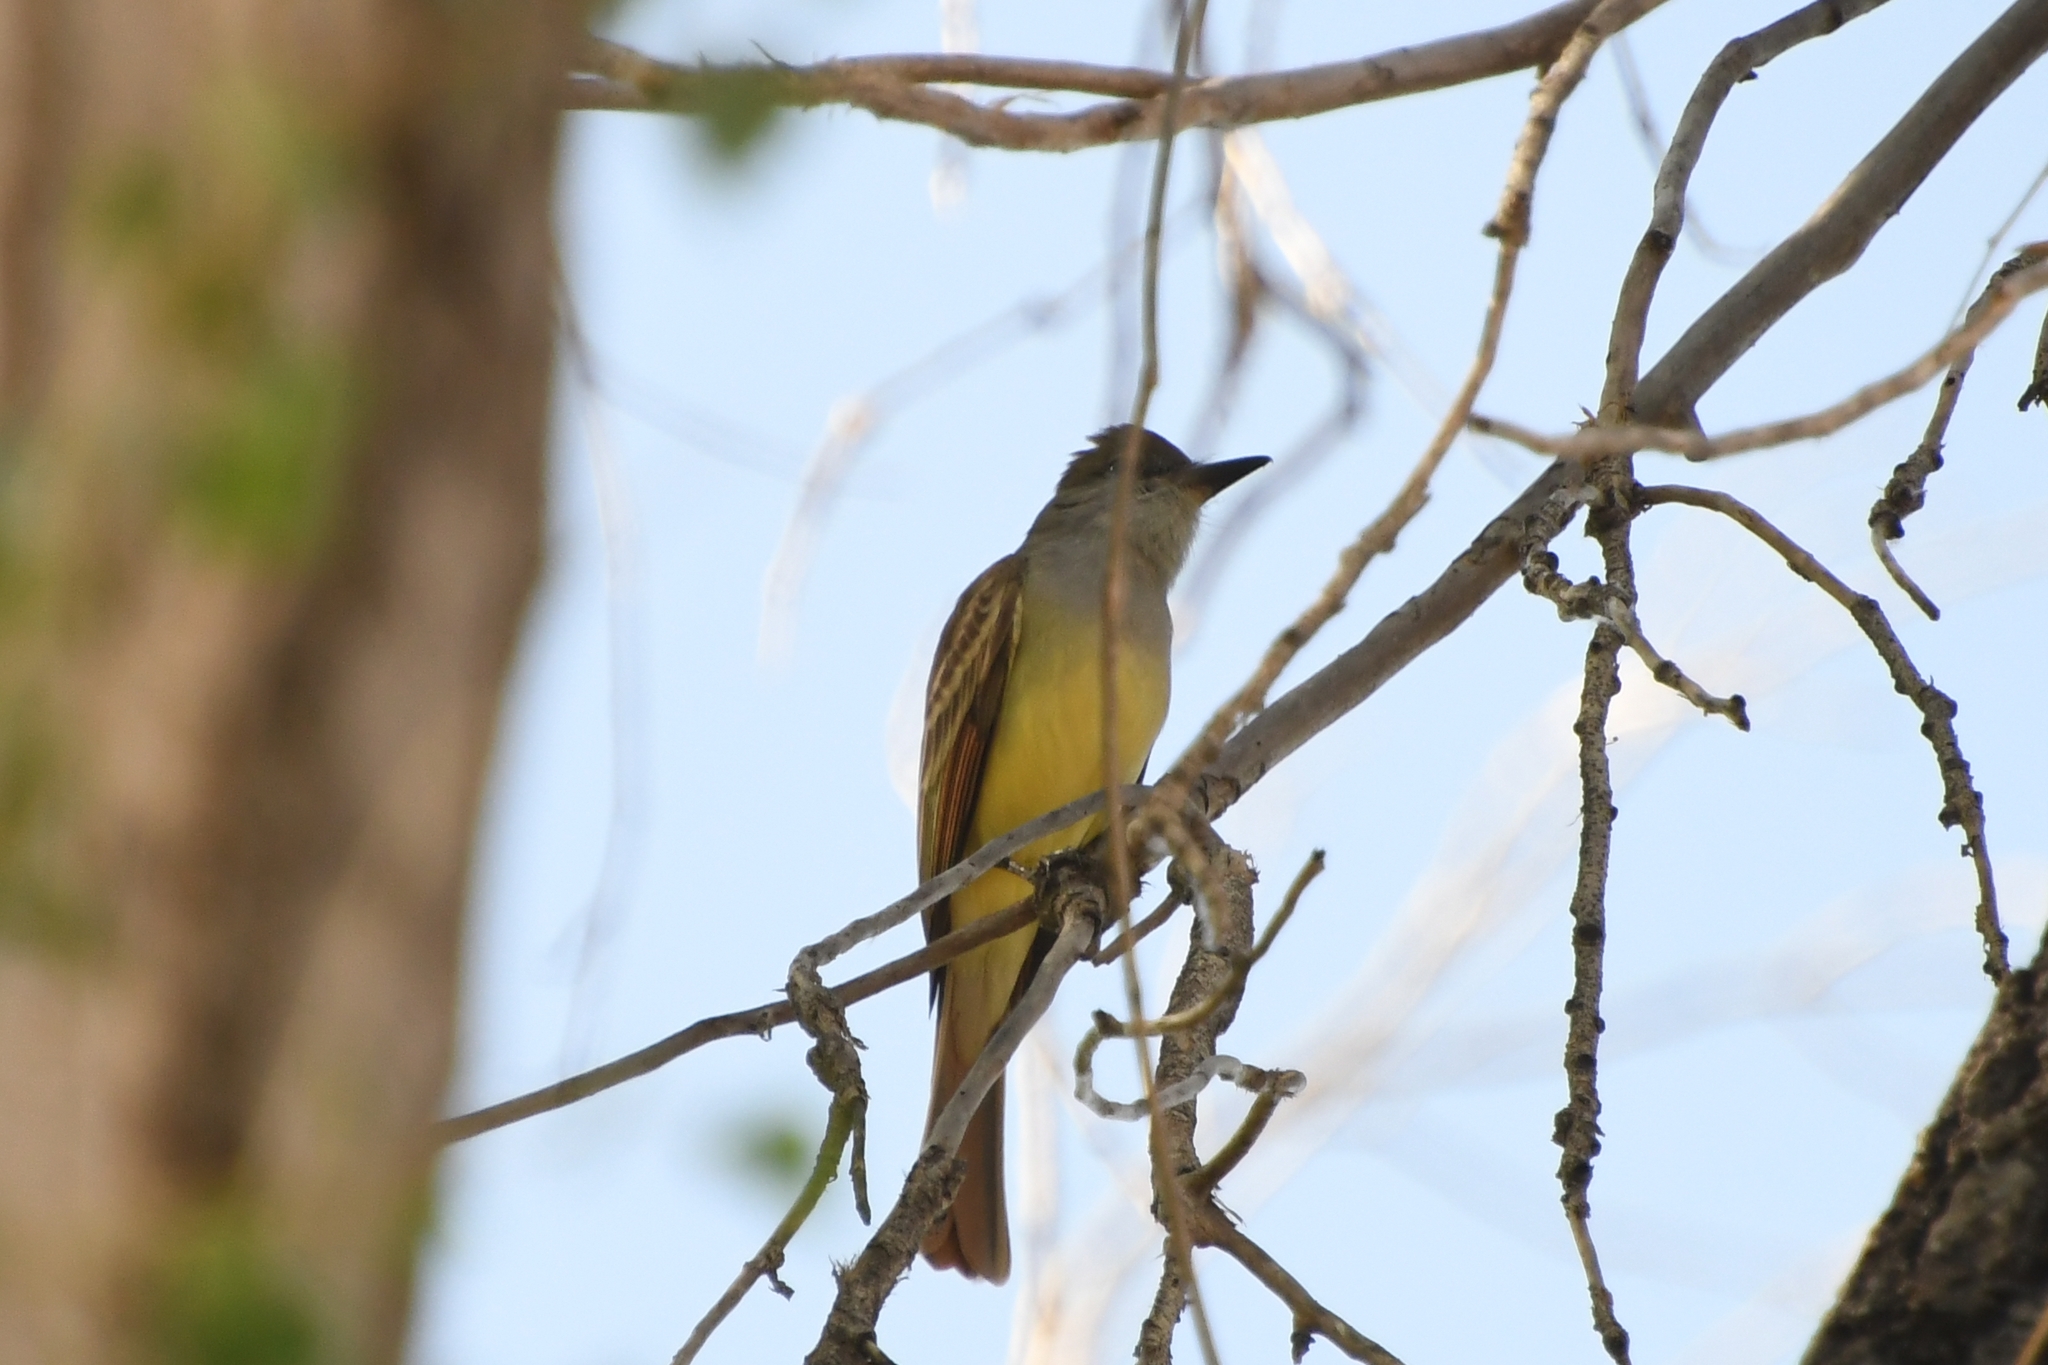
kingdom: Animalia
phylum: Chordata
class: Aves
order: Passeriformes
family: Tyrannidae
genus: Myiarchus
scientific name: Myiarchus tyrannulus
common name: Brown-crested flycatcher
